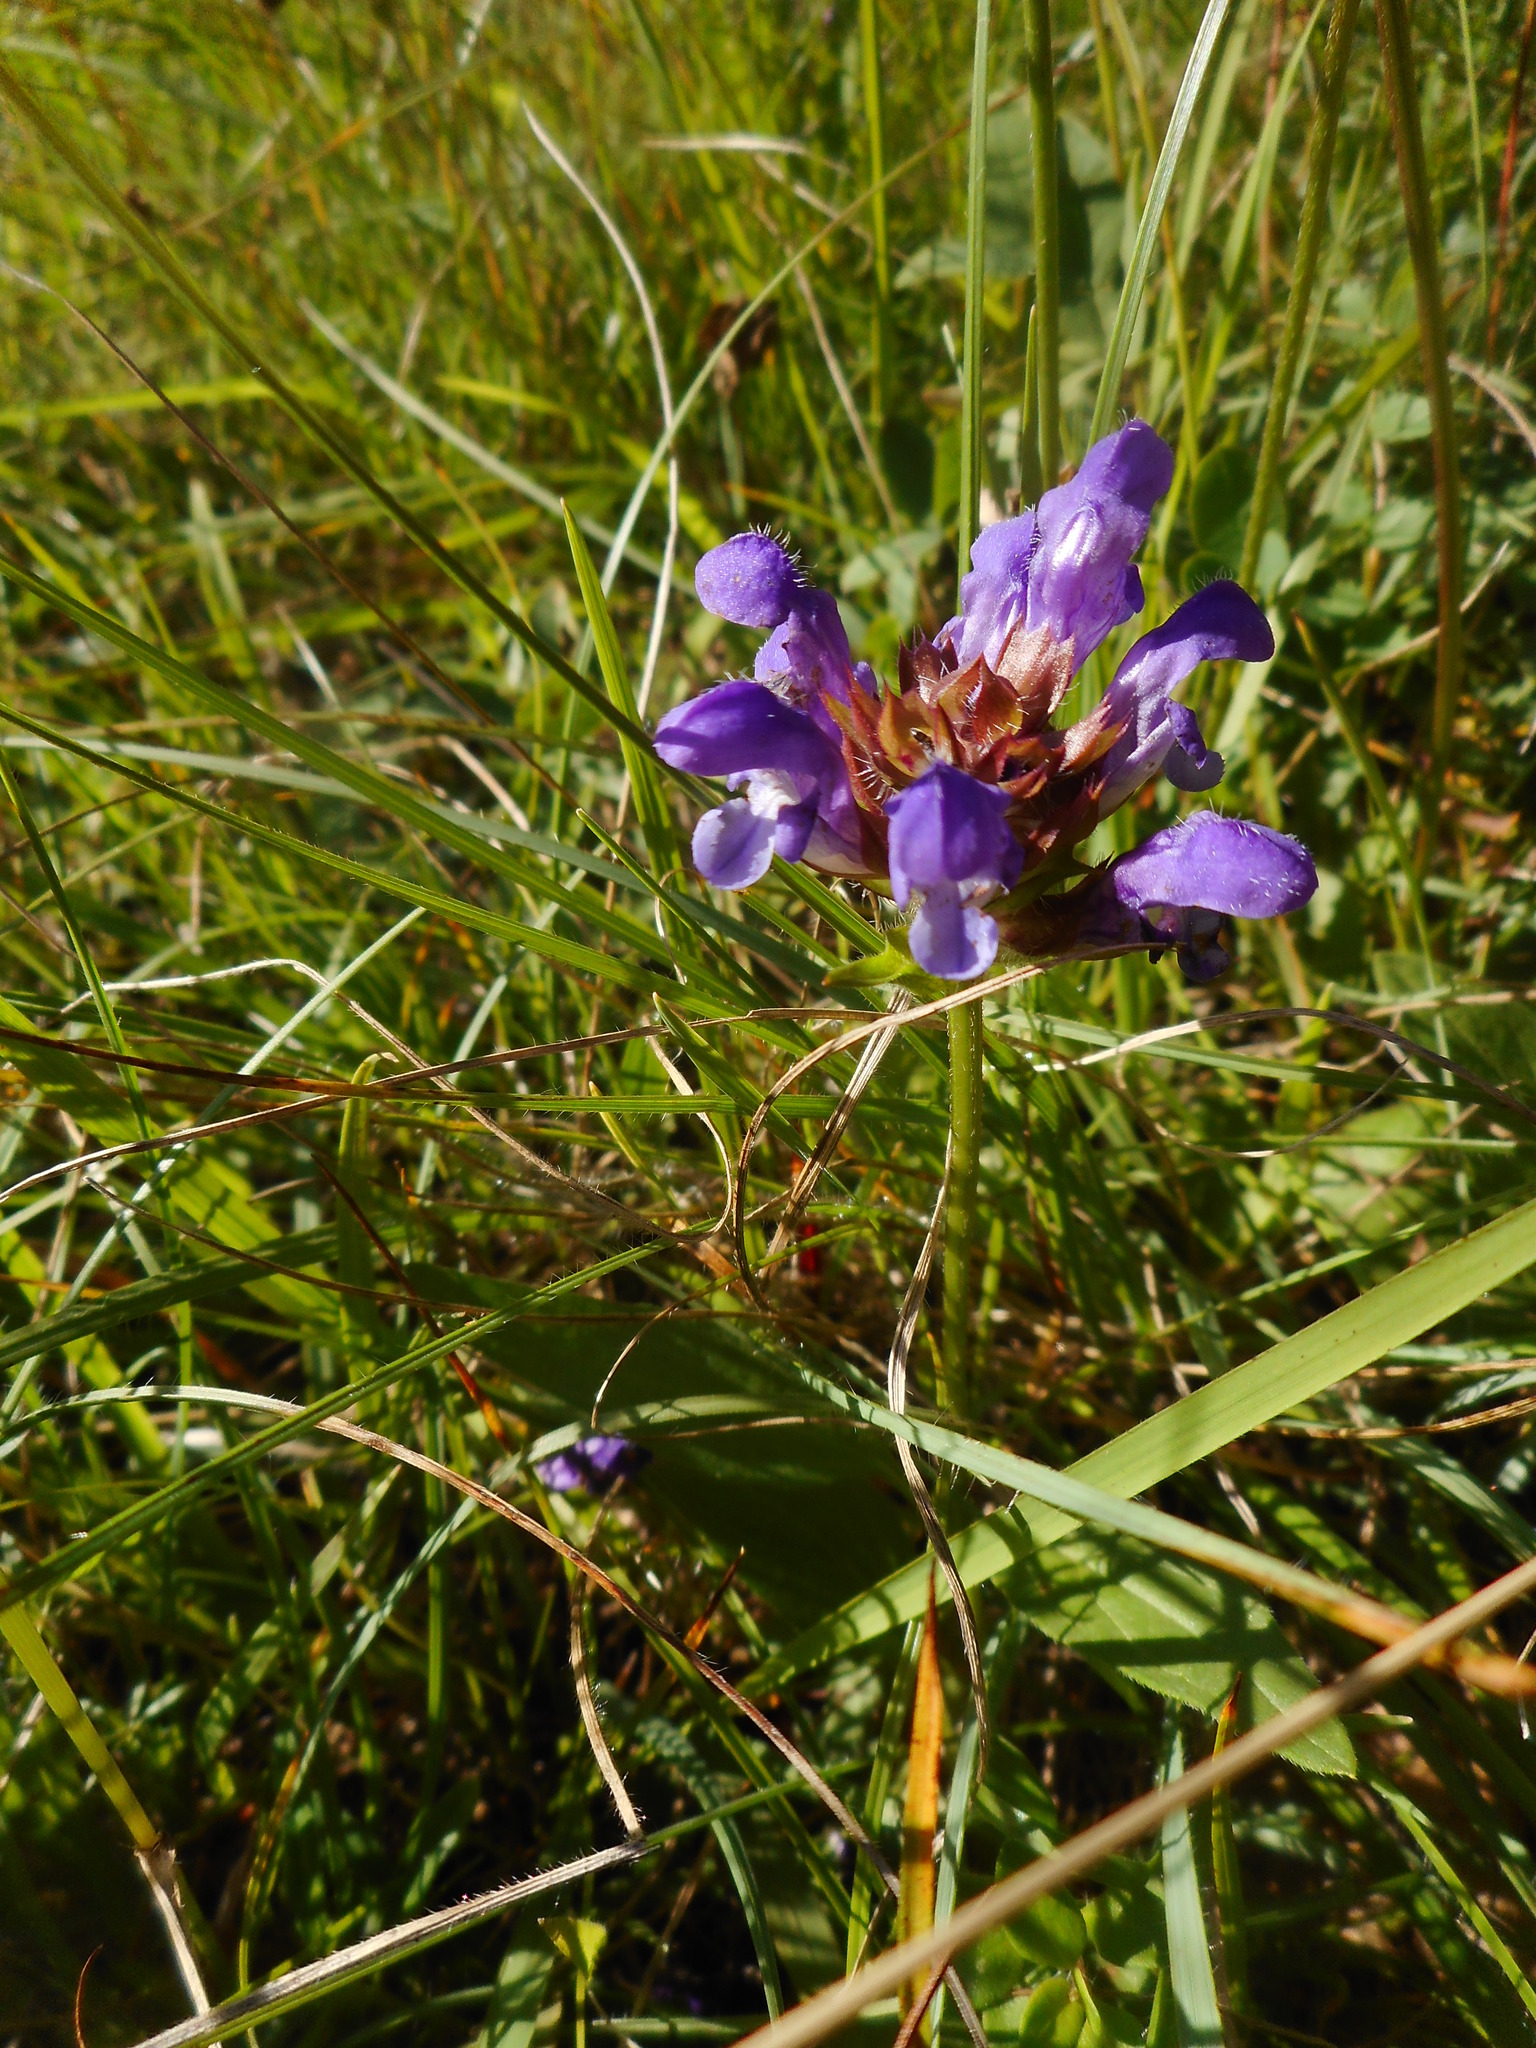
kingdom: Plantae
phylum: Tracheophyta
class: Magnoliopsida
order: Lamiales
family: Lamiaceae
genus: Prunella
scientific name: Prunella grandiflora
